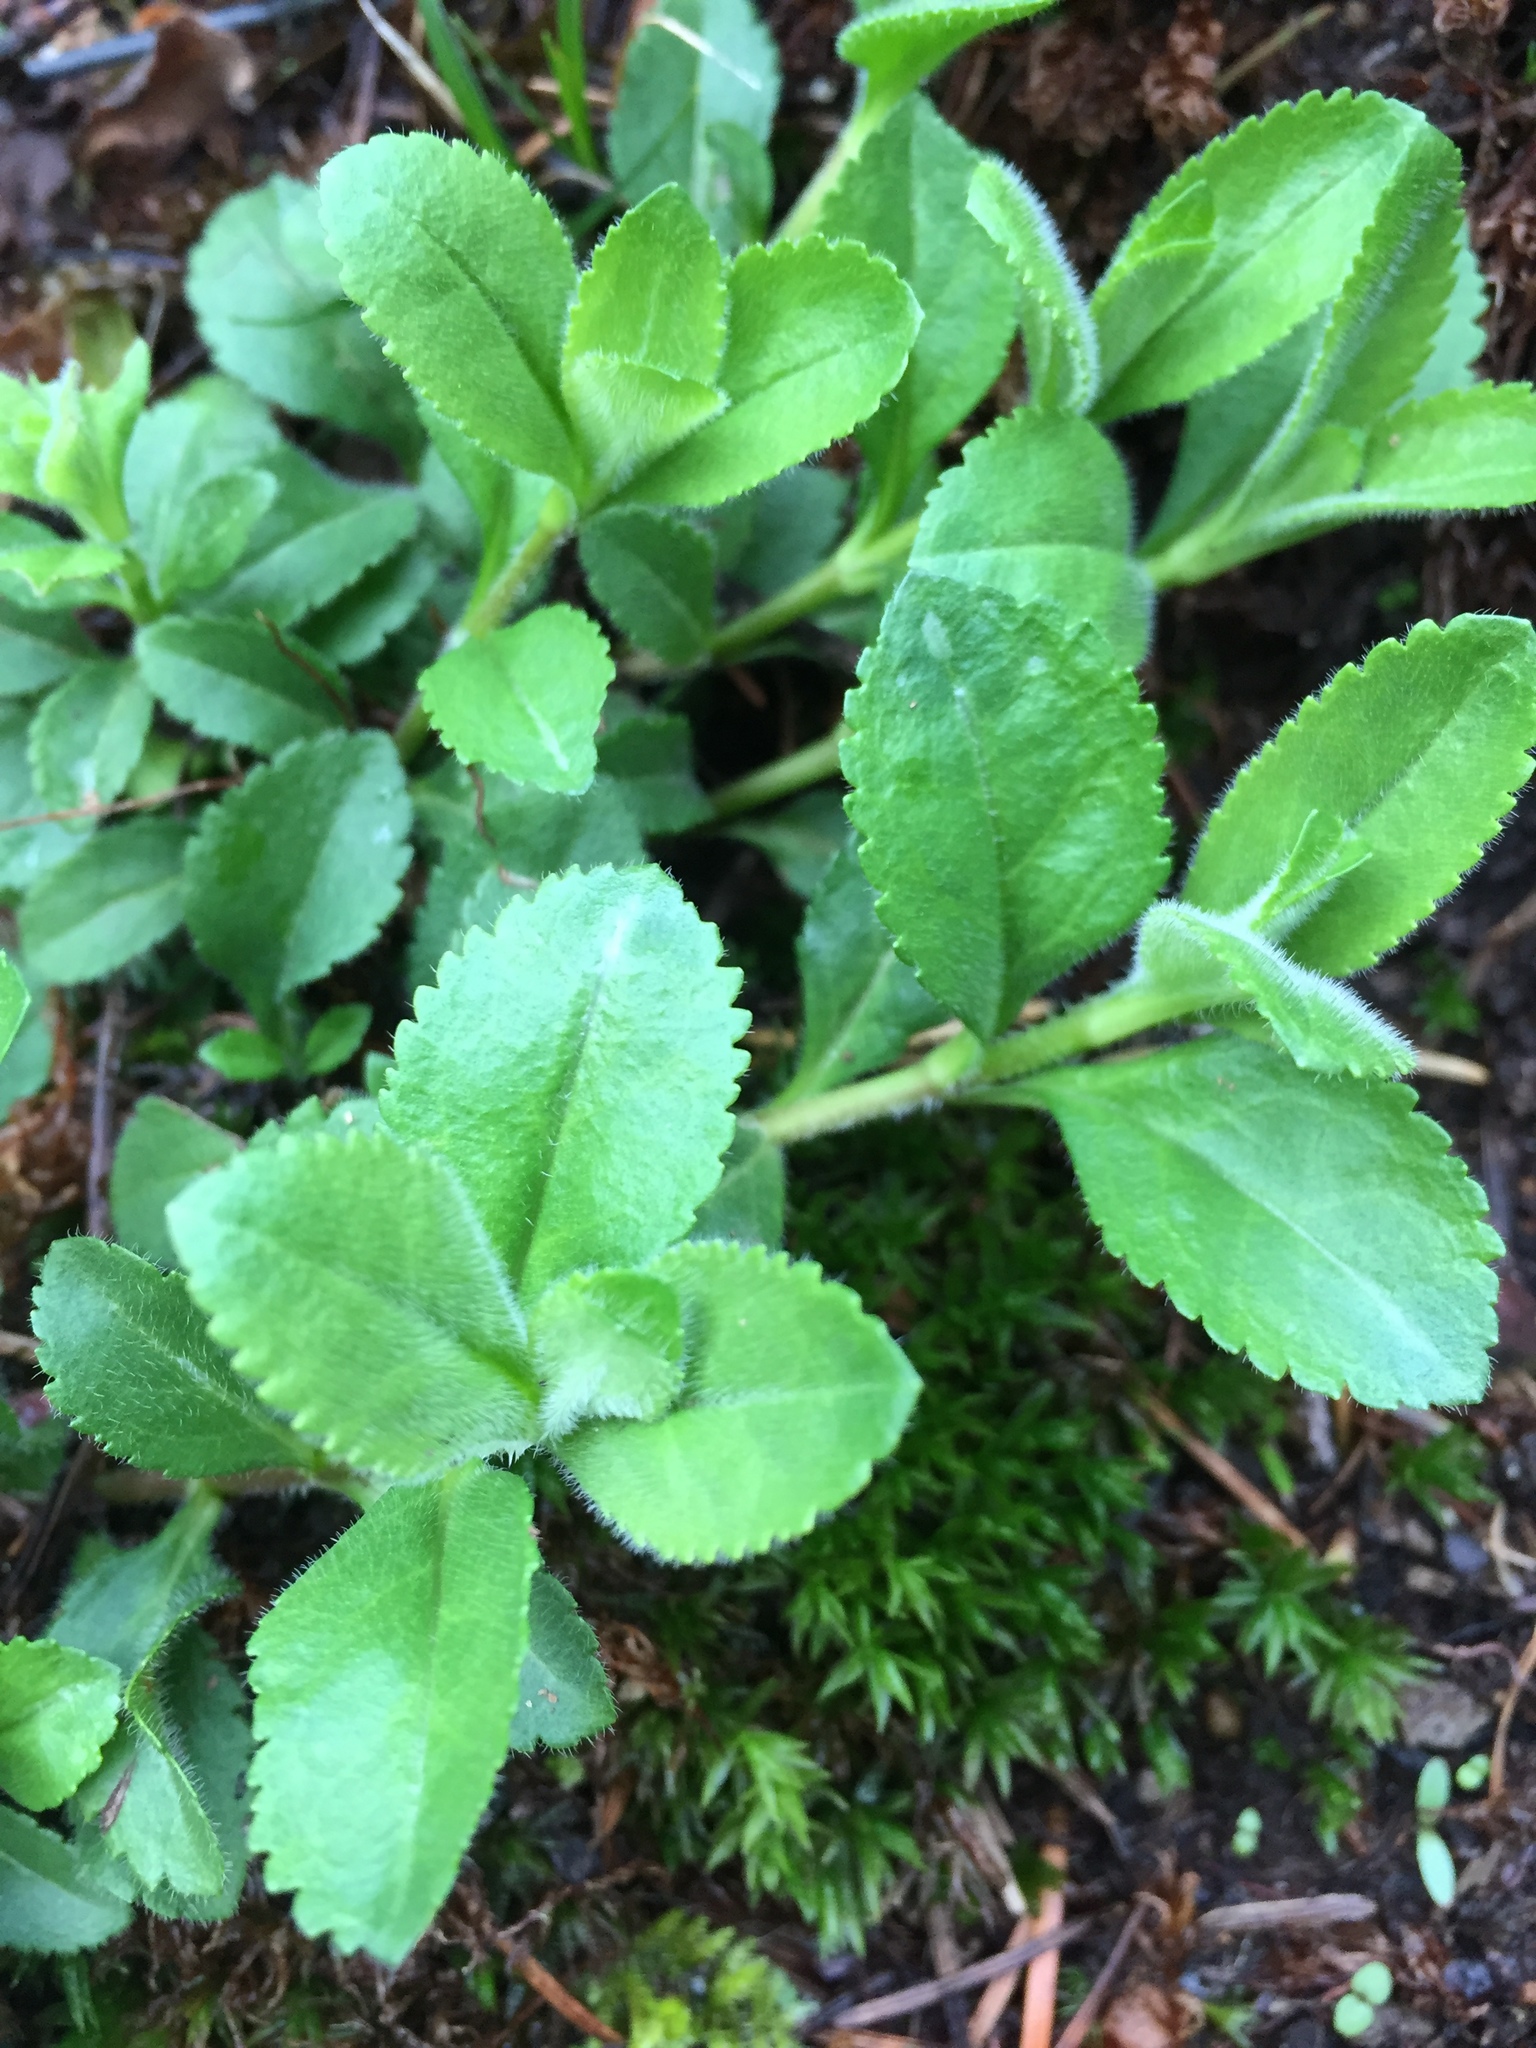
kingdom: Plantae
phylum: Tracheophyta
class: Magnoliopsida
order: Lamiales
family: Plantaginaceae
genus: Veronica
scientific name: Veronica officinalis
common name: Common speedwell
